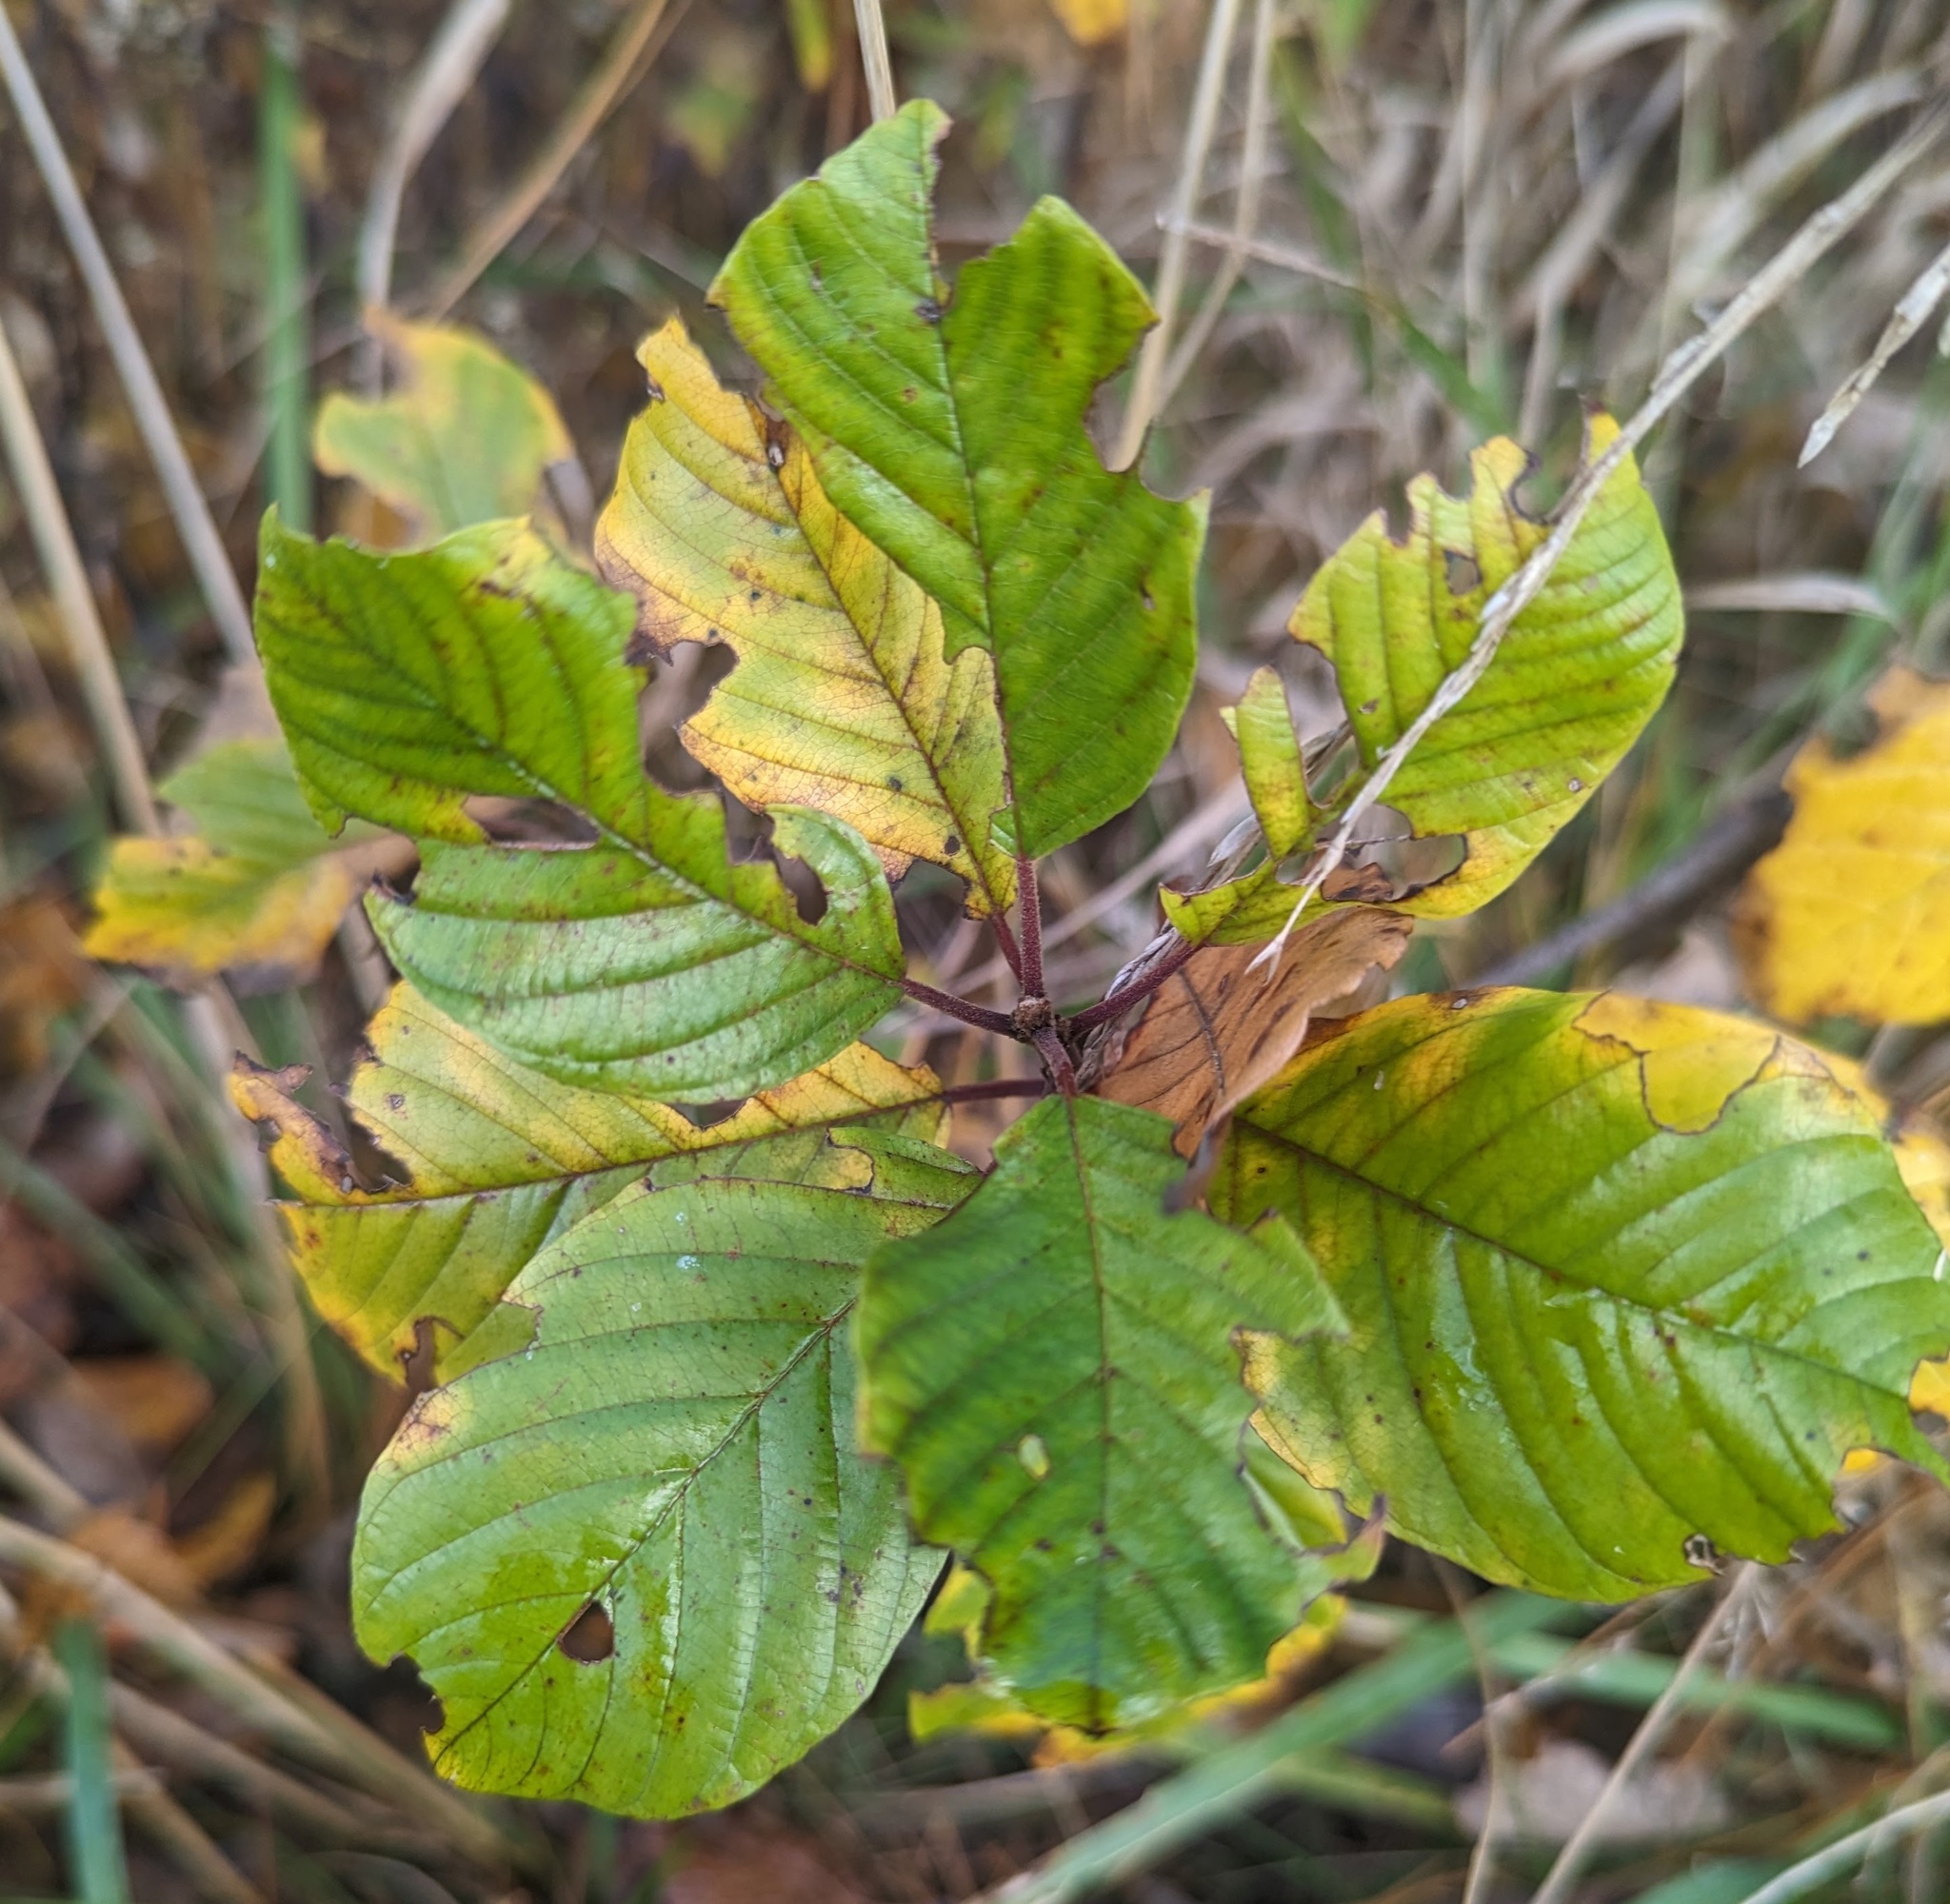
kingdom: Plantae
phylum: Tracheophyta
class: Magnoliopsida
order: Rosales
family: Rhamnaceae
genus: Frangula
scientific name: Frangula alnus
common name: Alder buckthorn
